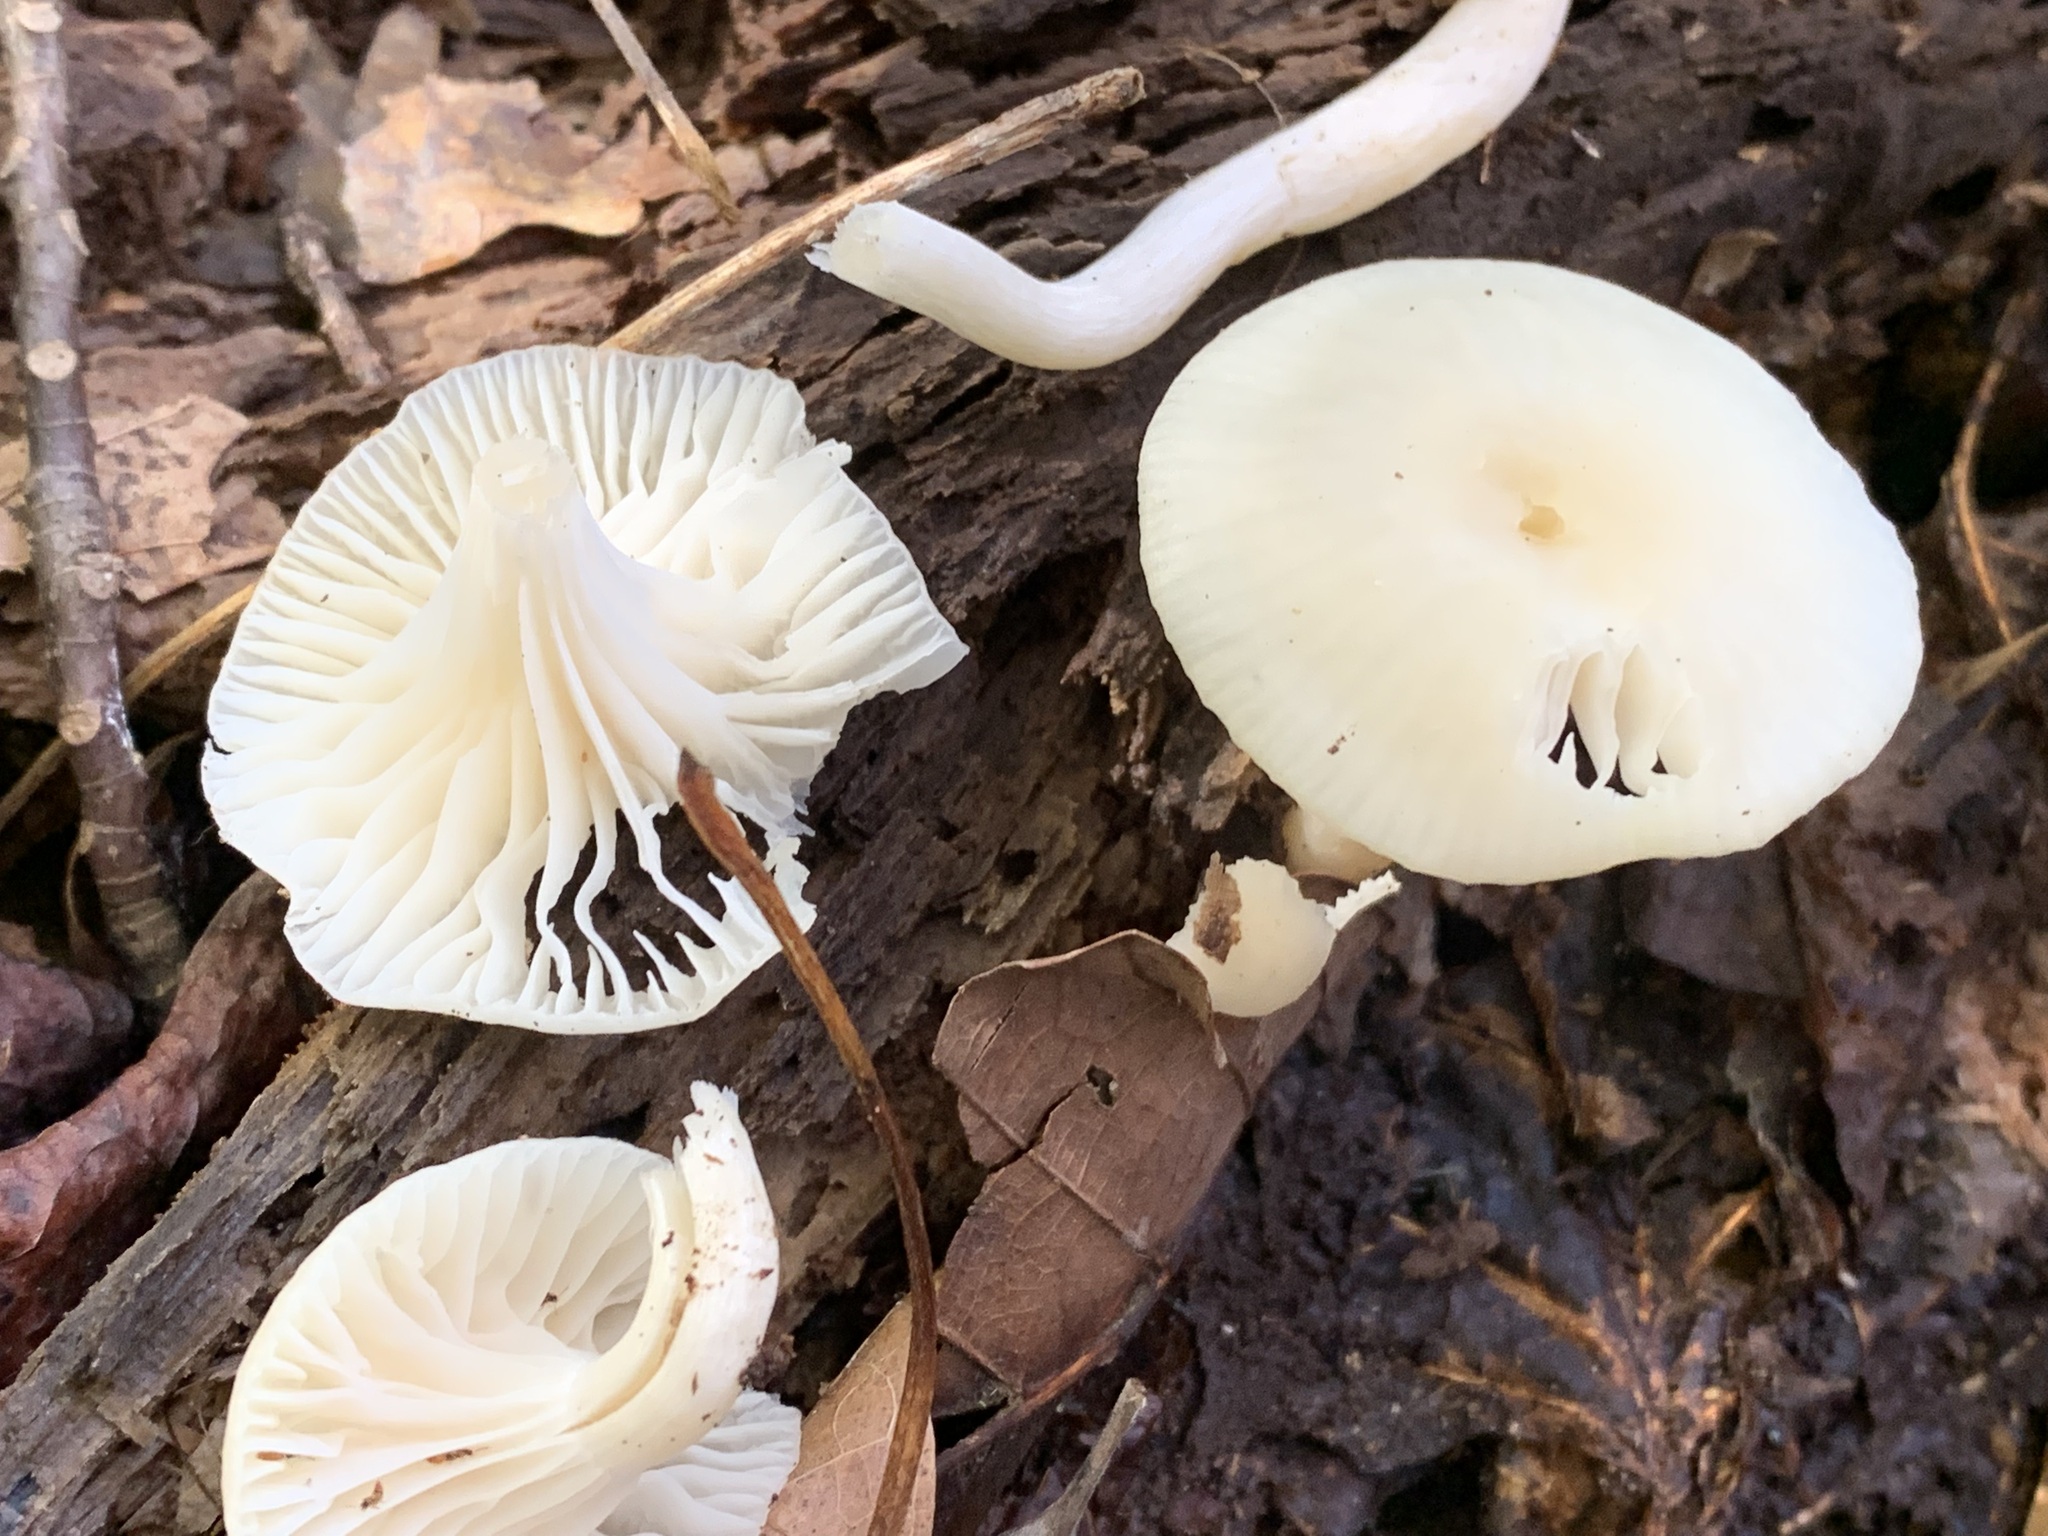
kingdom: Fungi
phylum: Basidiomycota
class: Agaricomycetes
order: Agaricales
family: Hygrophoraceae
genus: Cuphophyllus
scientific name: Cuphophyllus virgineus
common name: Snowy waxcap
